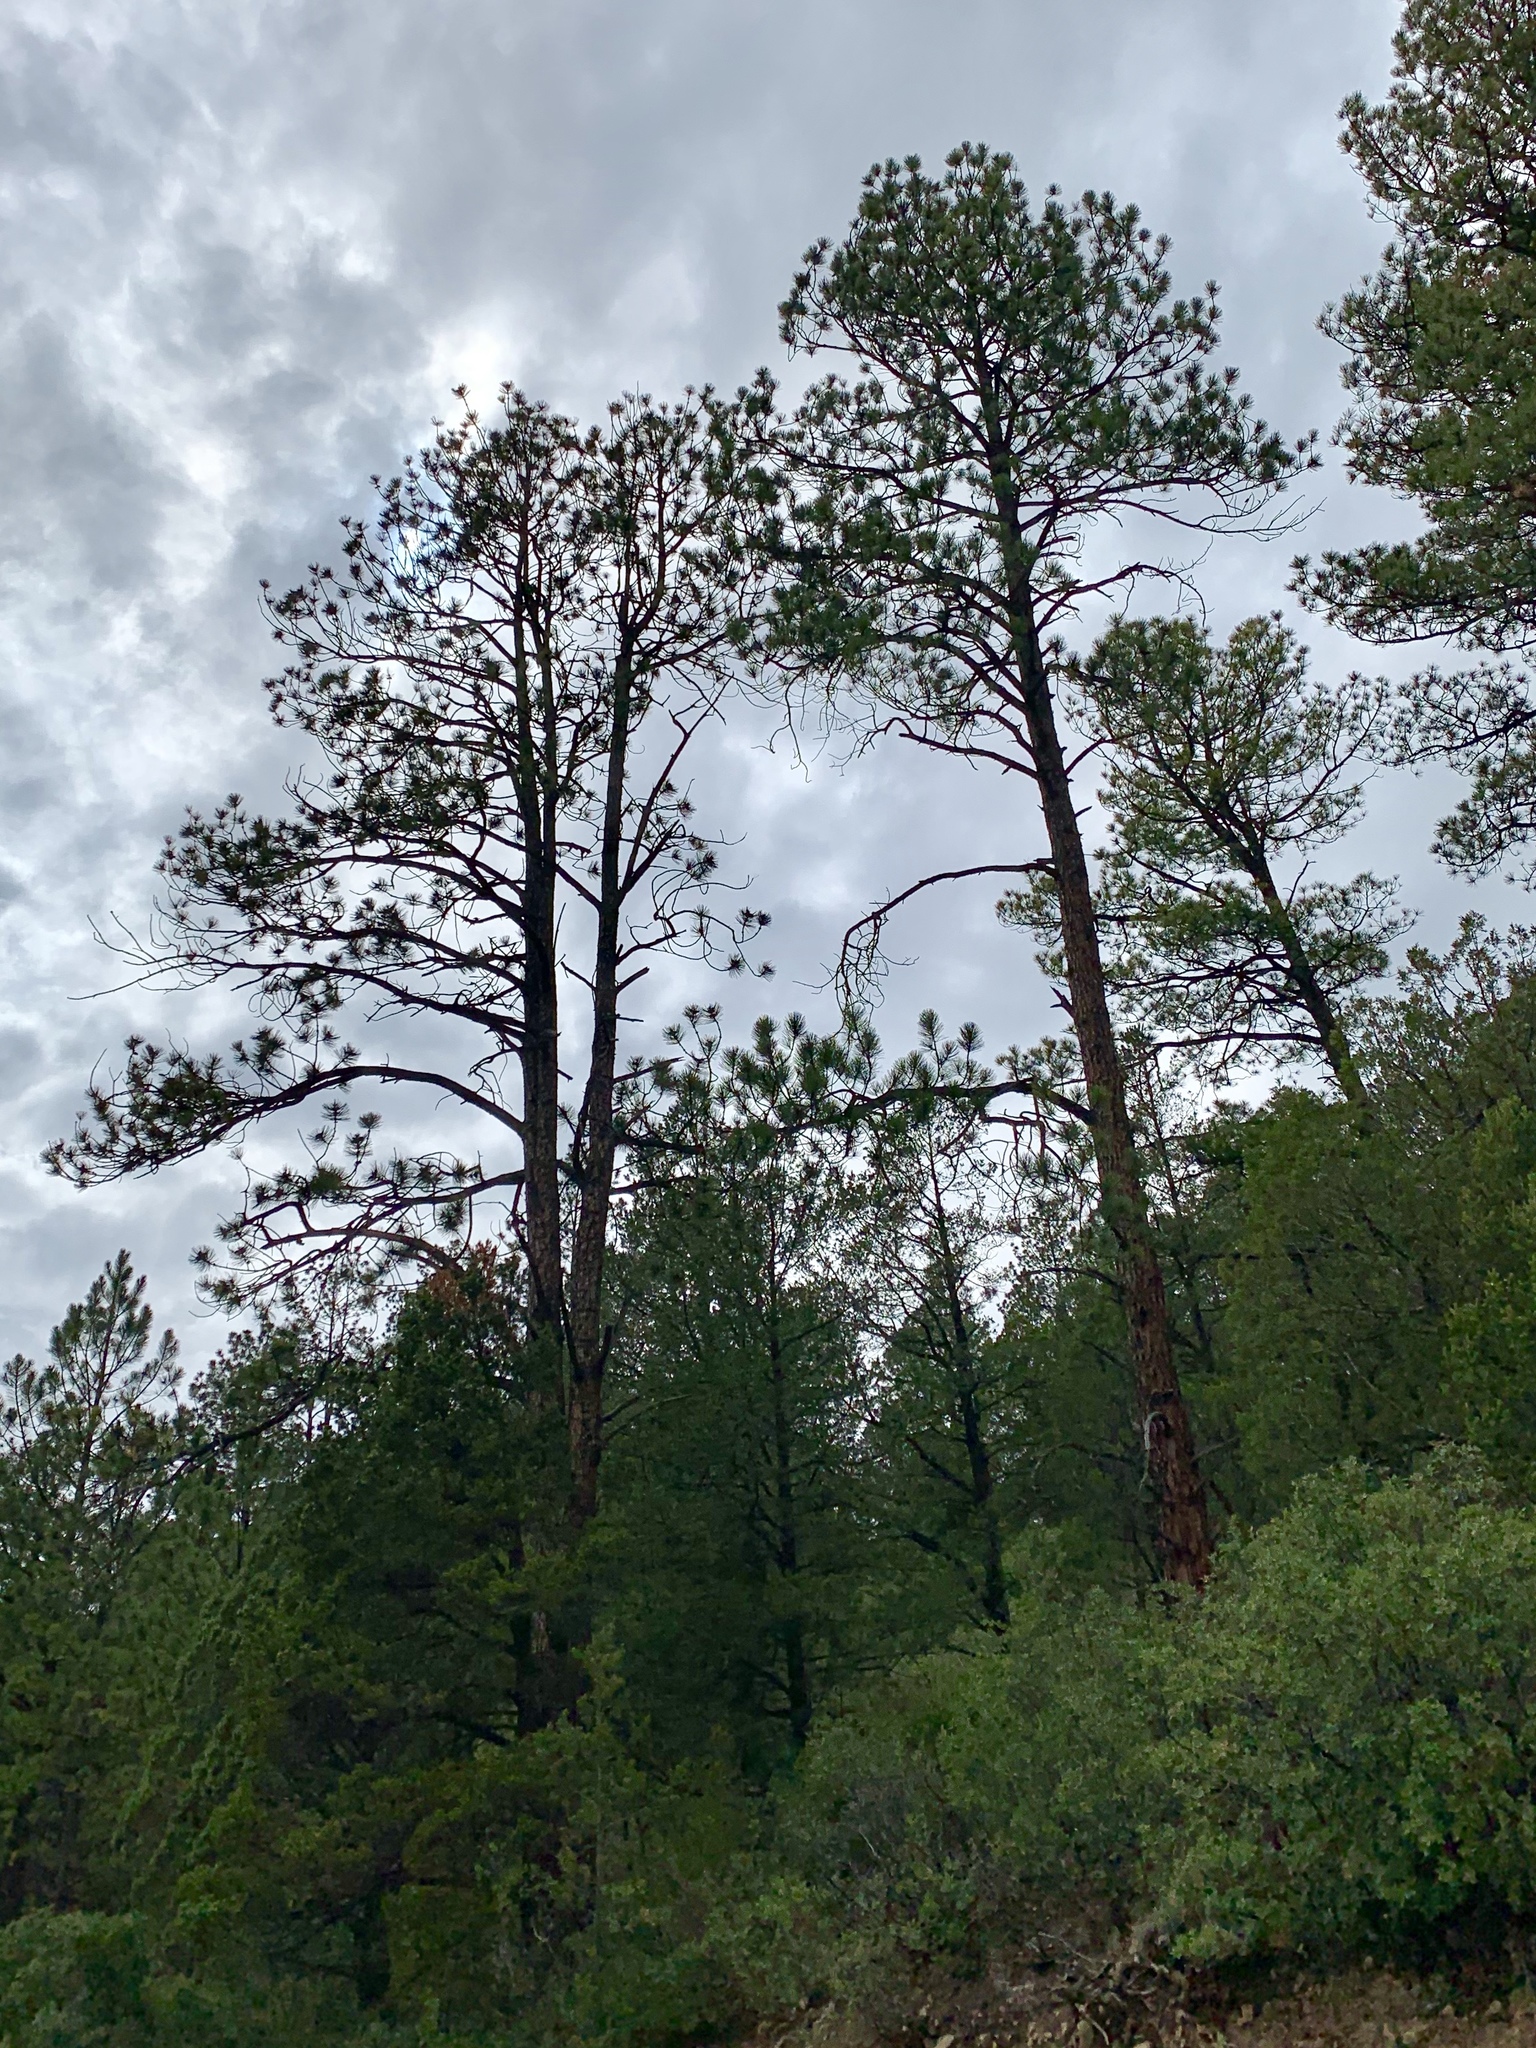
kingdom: Plantae
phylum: Tracheophyta
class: Pinopsida
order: Pinales
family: Pinaceae
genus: Pinus
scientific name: Pinus ponderosa
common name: Western yellow-pine
